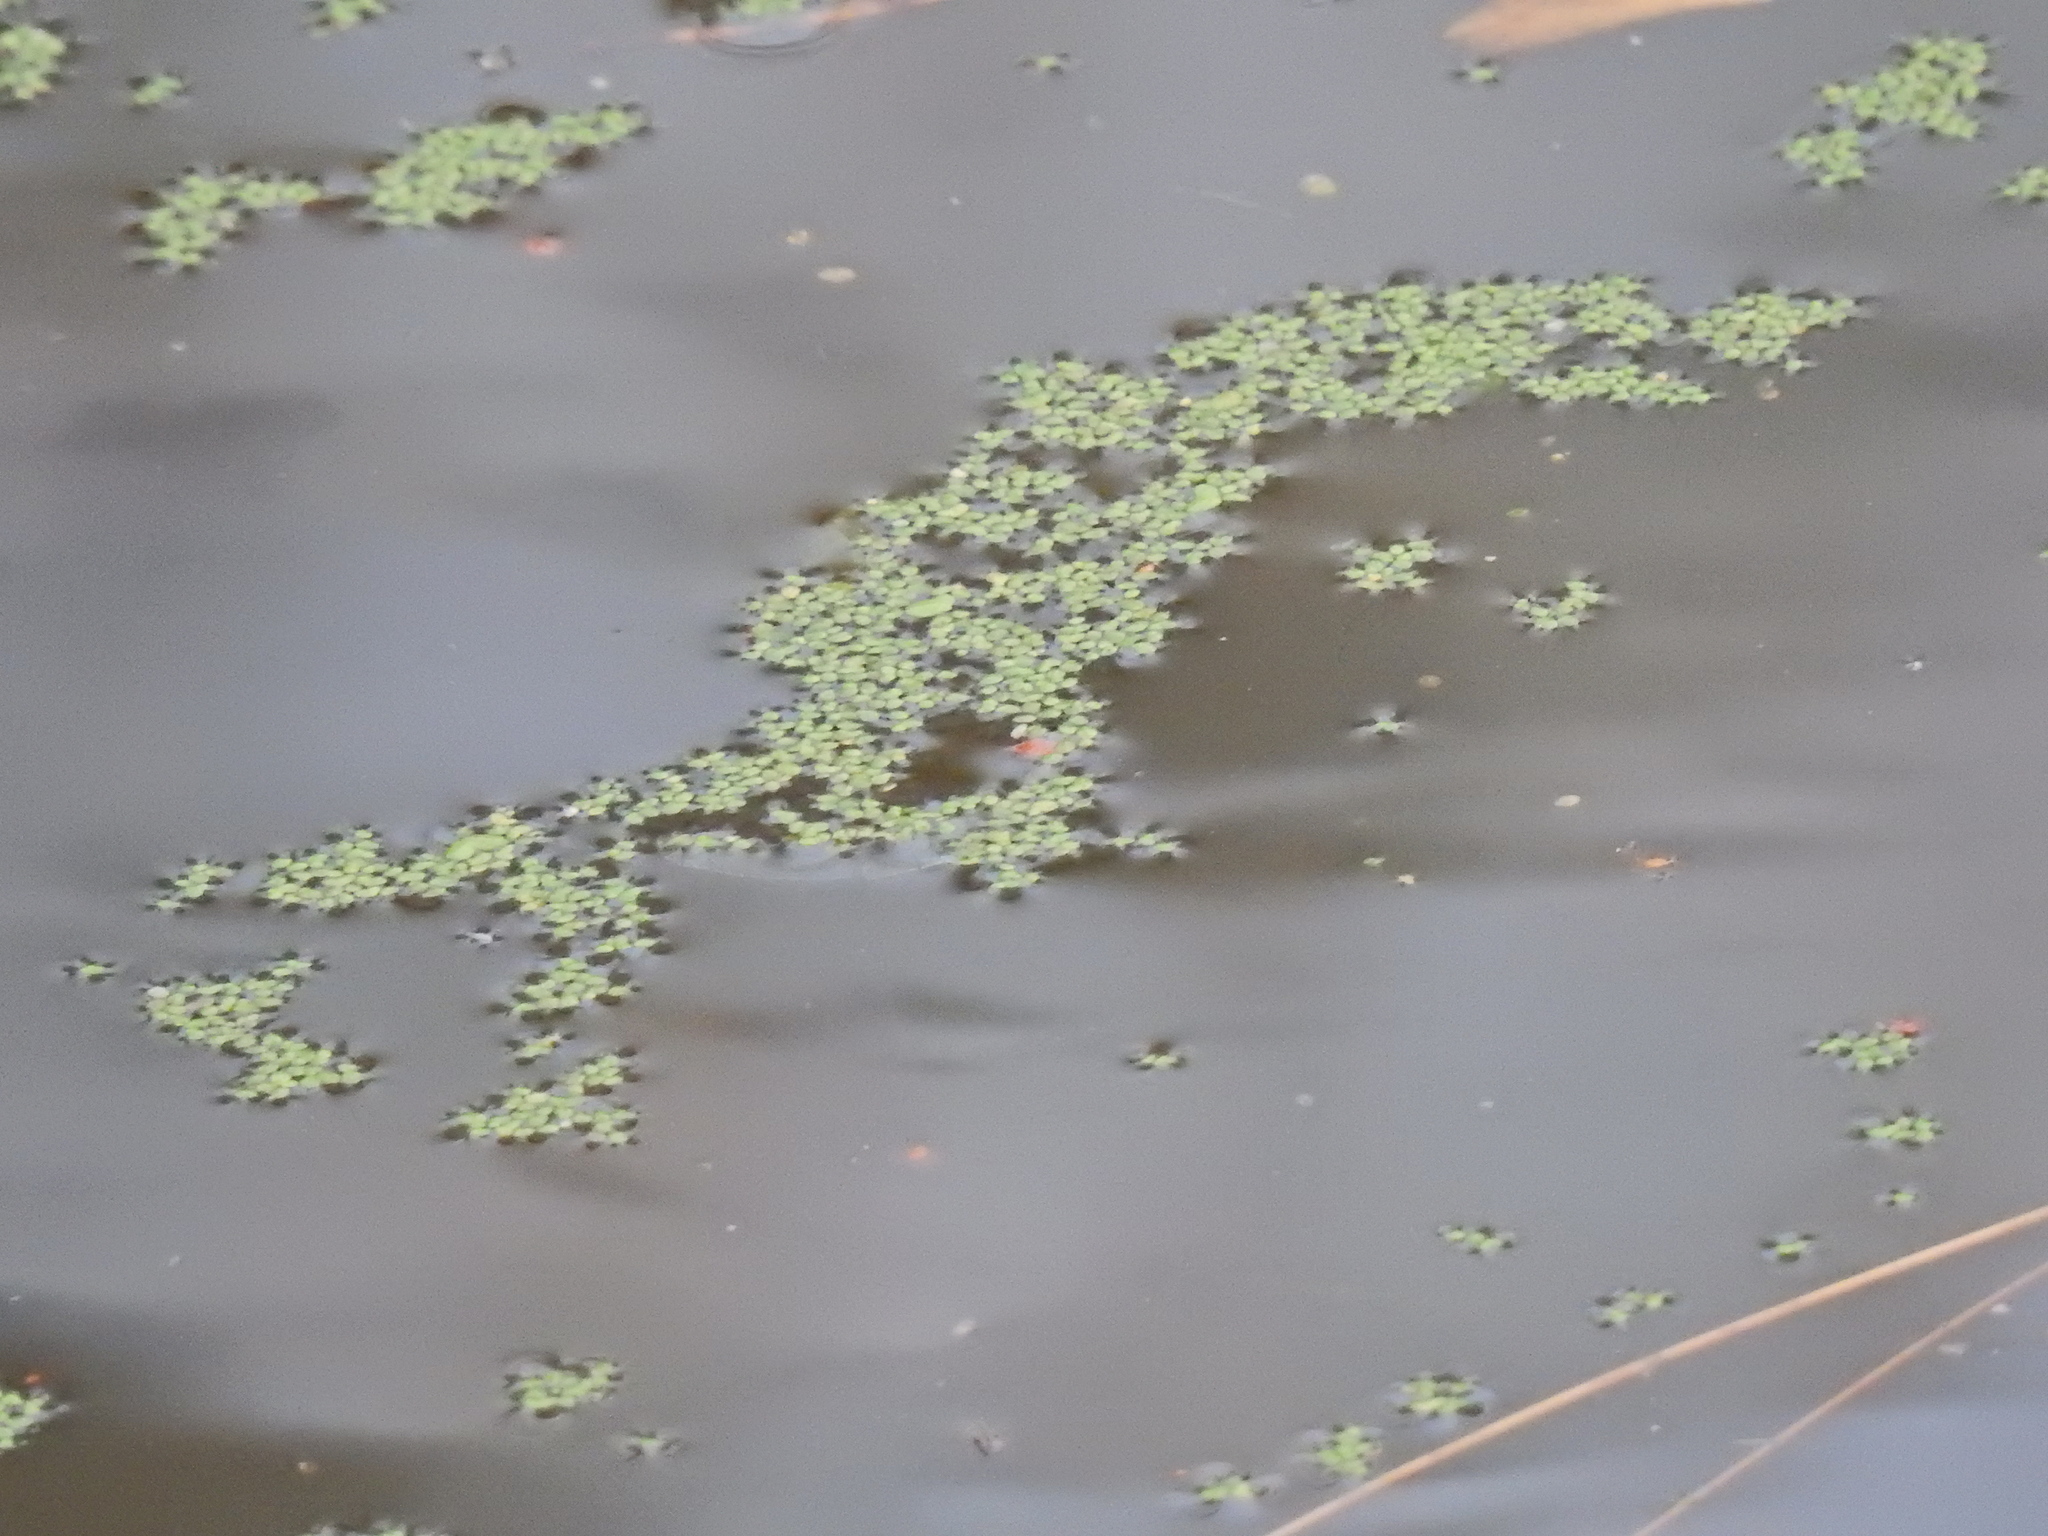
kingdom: Plantae
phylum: Tracheophyta
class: Liliopsida
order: Alismatales
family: Araceae
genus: Lemna
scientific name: Lemna minor
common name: Common duckweed
